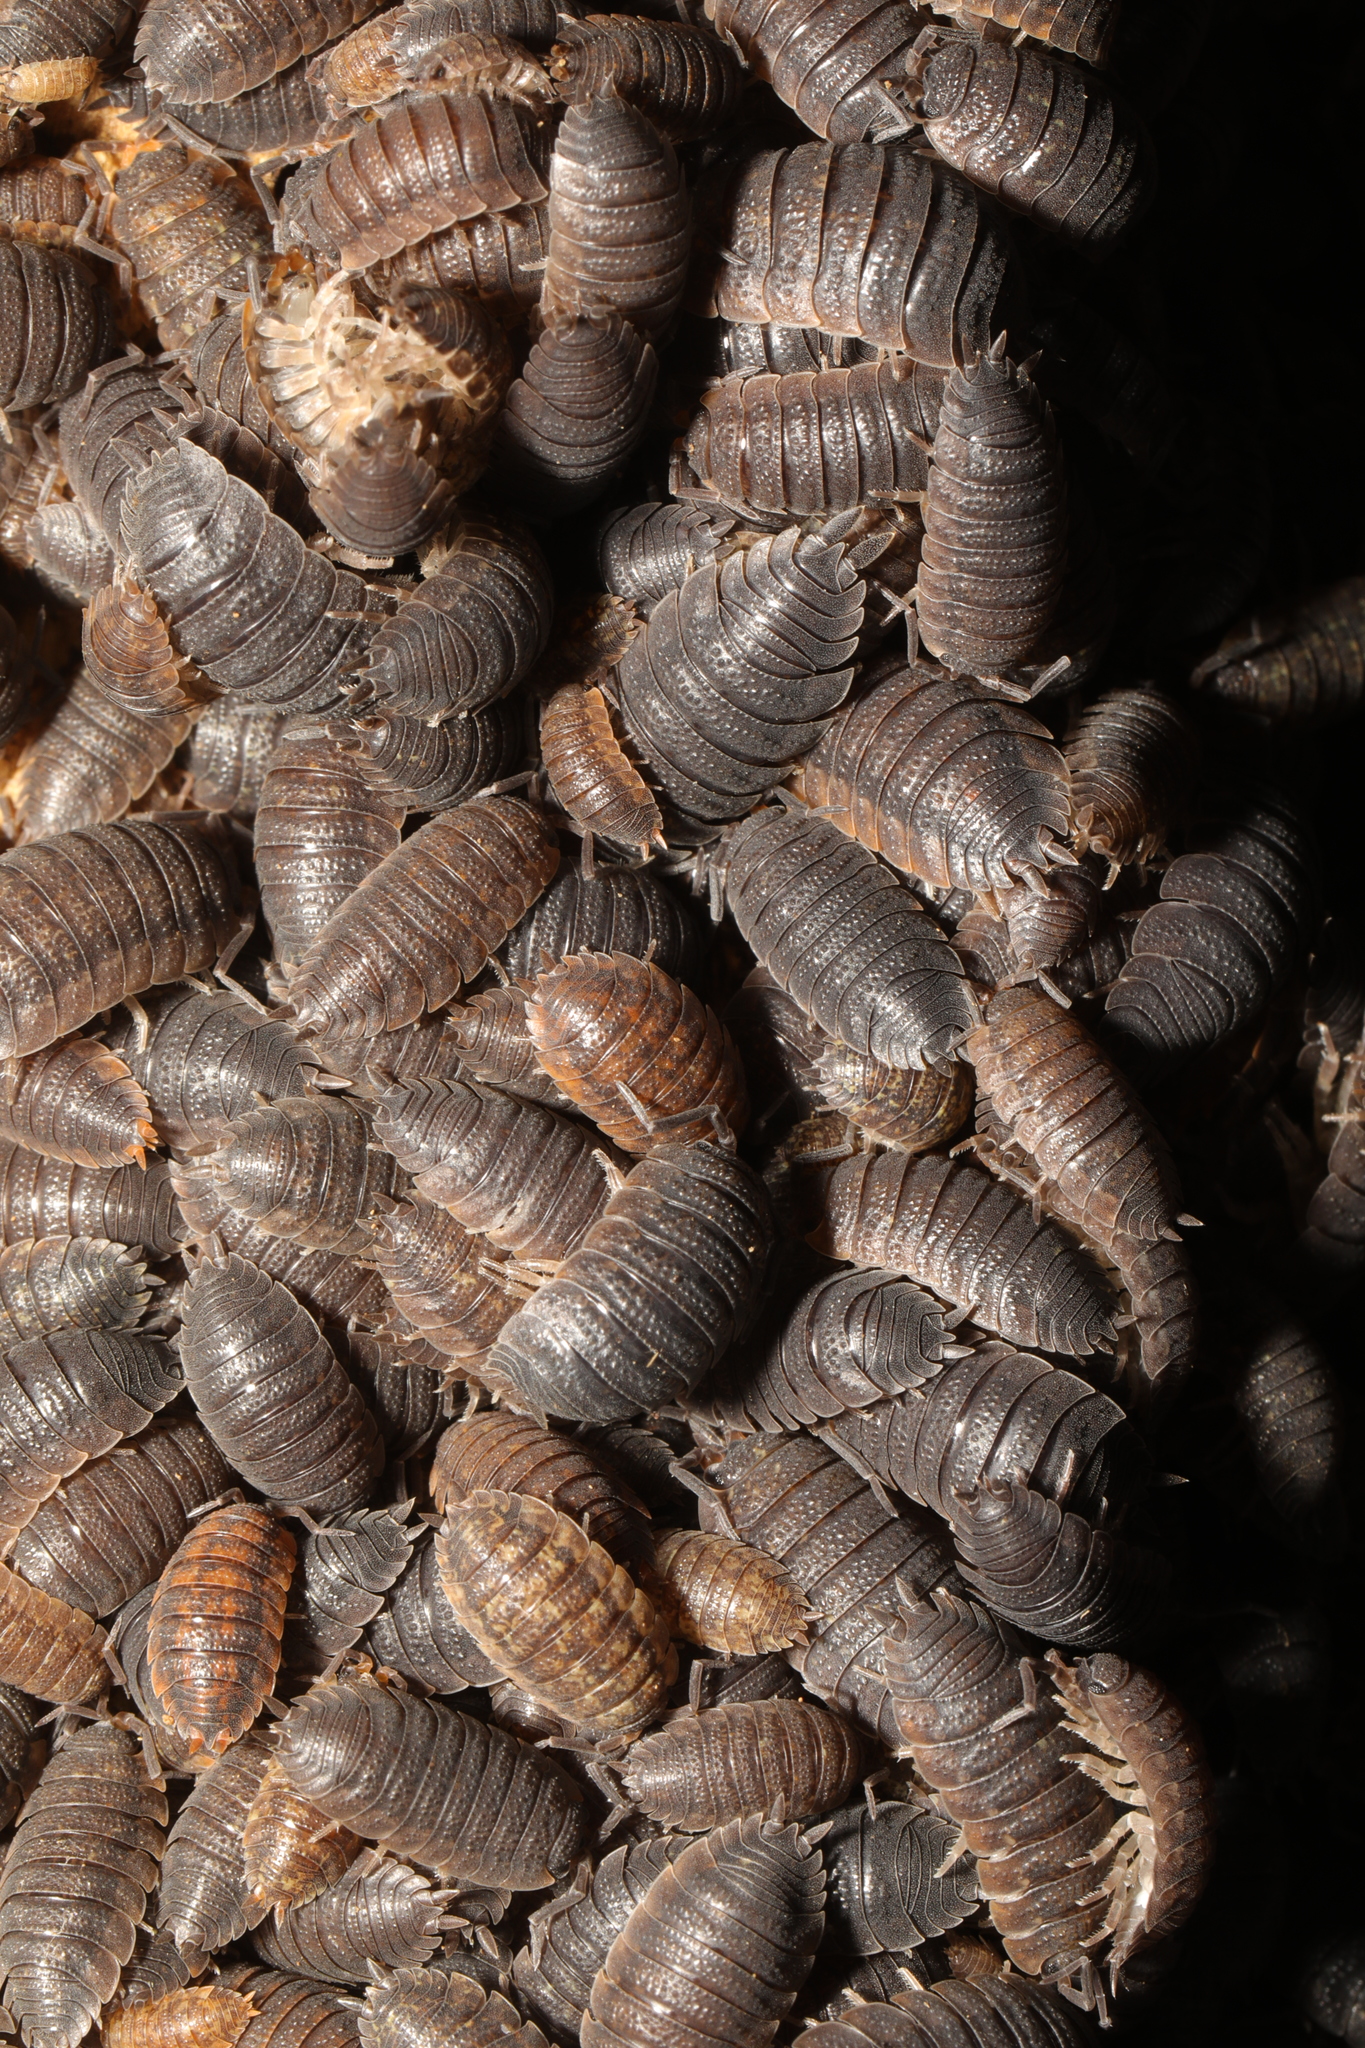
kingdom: Animalia
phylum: Arthropoda
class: Malacostraca
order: Isopoda
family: Porcellionidae
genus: Porcellio
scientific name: Porcellio scaber
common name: Common rough woodlouse
